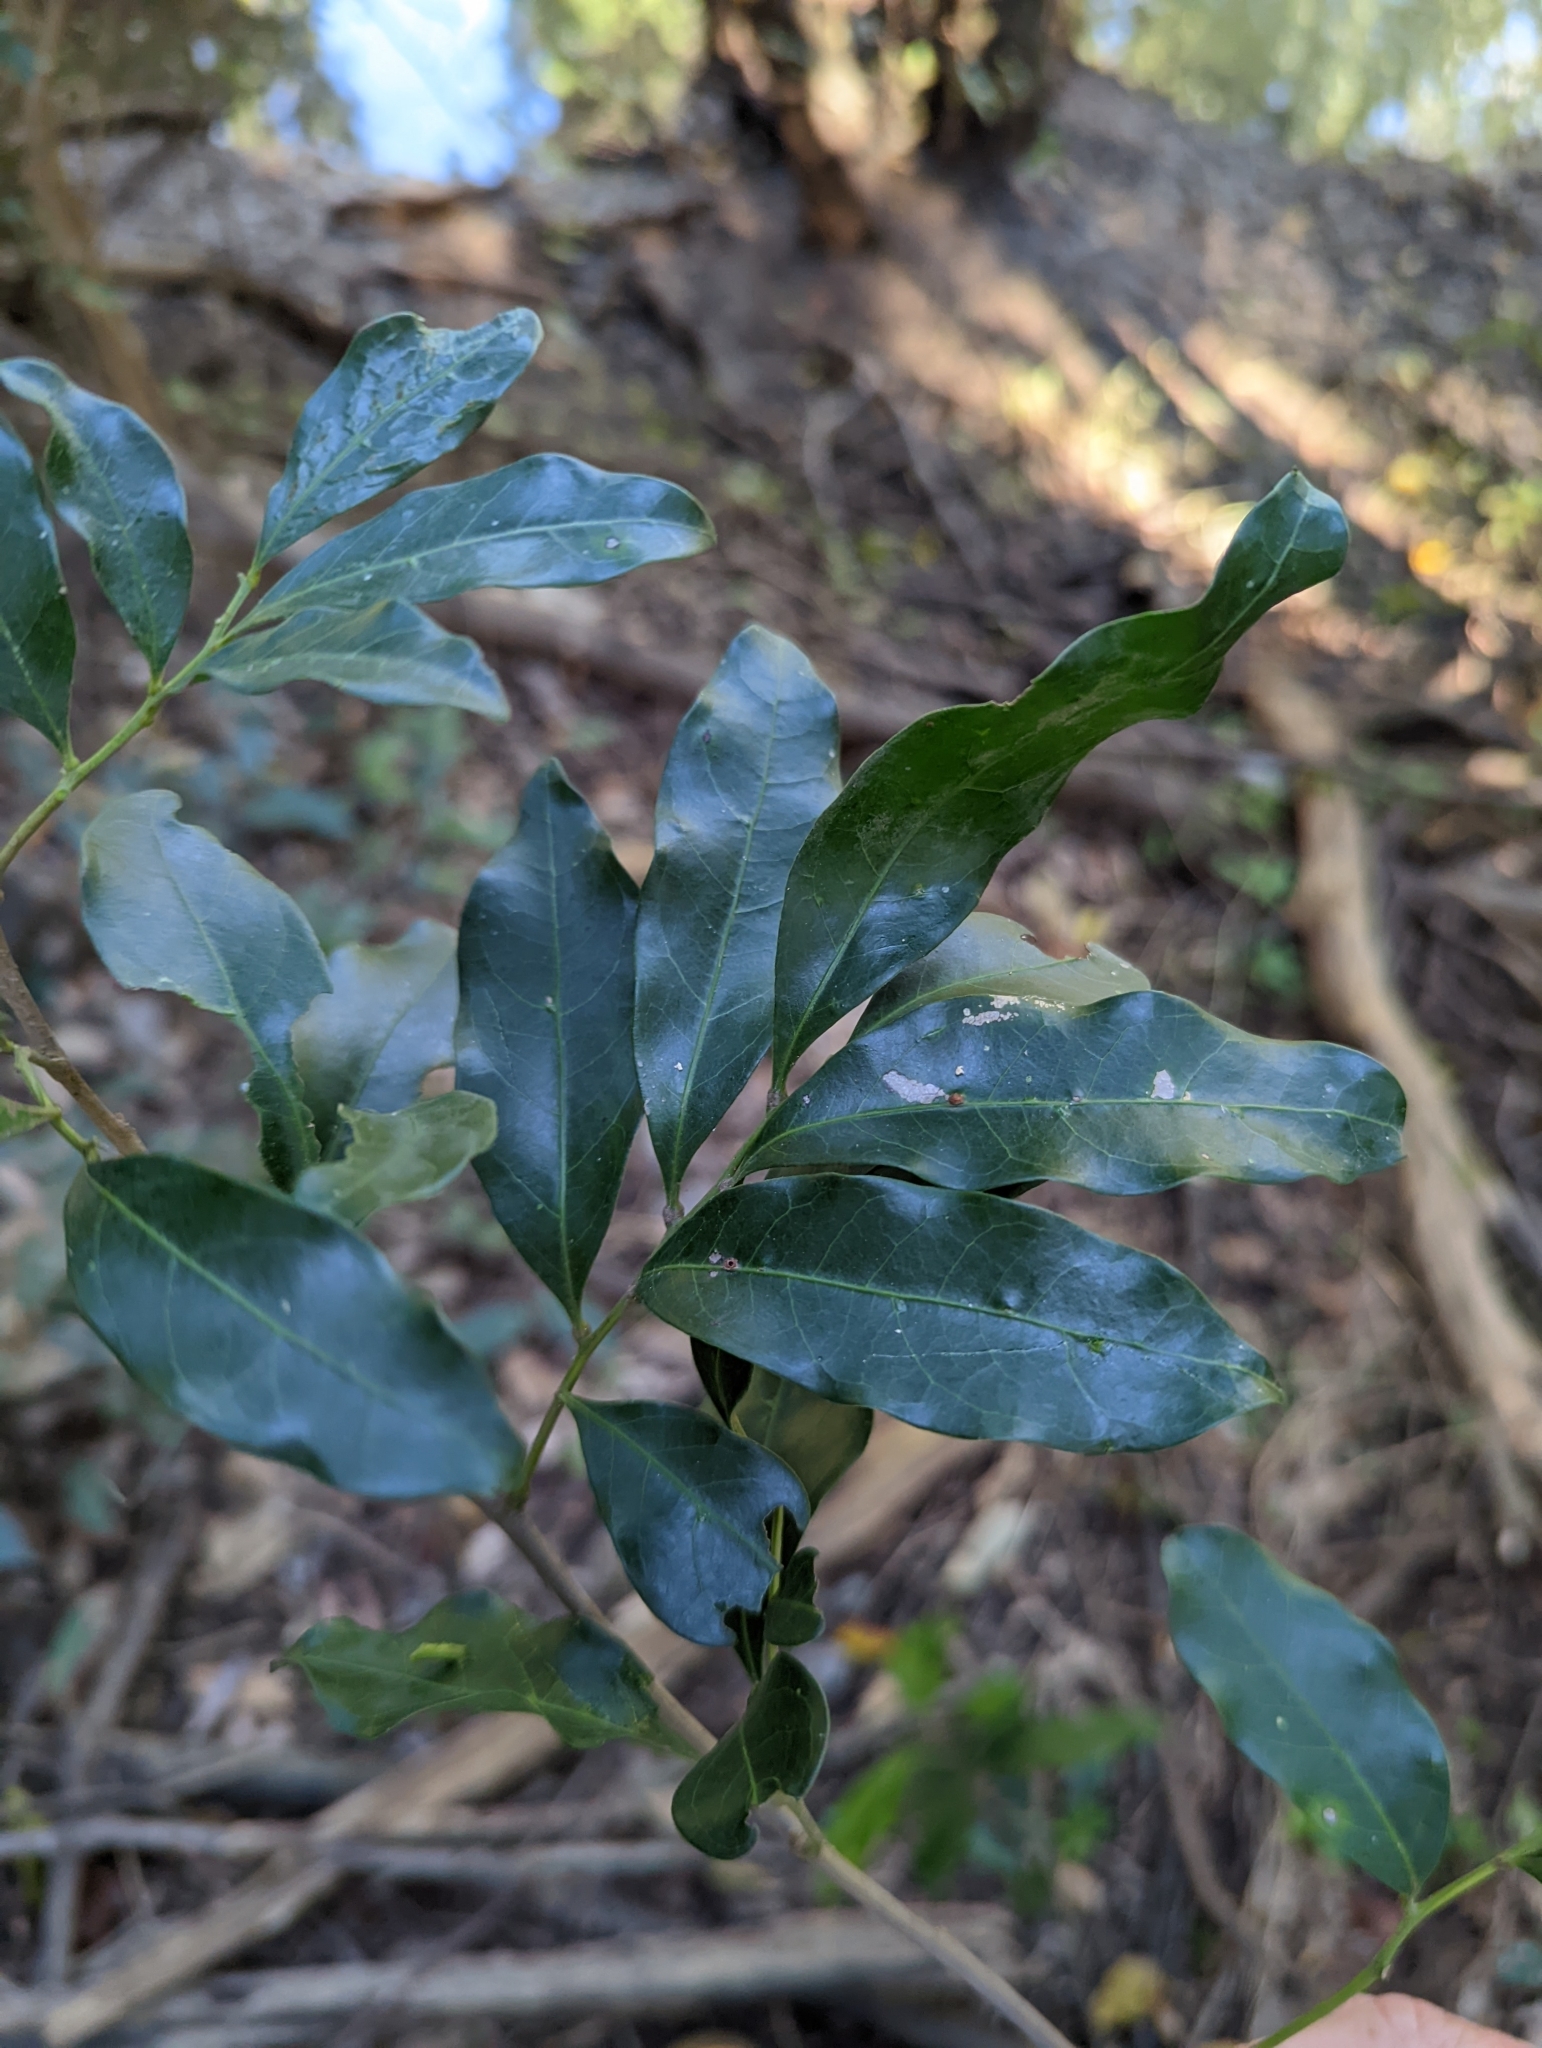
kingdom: Plantae
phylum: Tracheophyta
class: Magnoliopsida
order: Sapindales
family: Sapindaceae
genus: Toechima
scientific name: Toechima tenax
